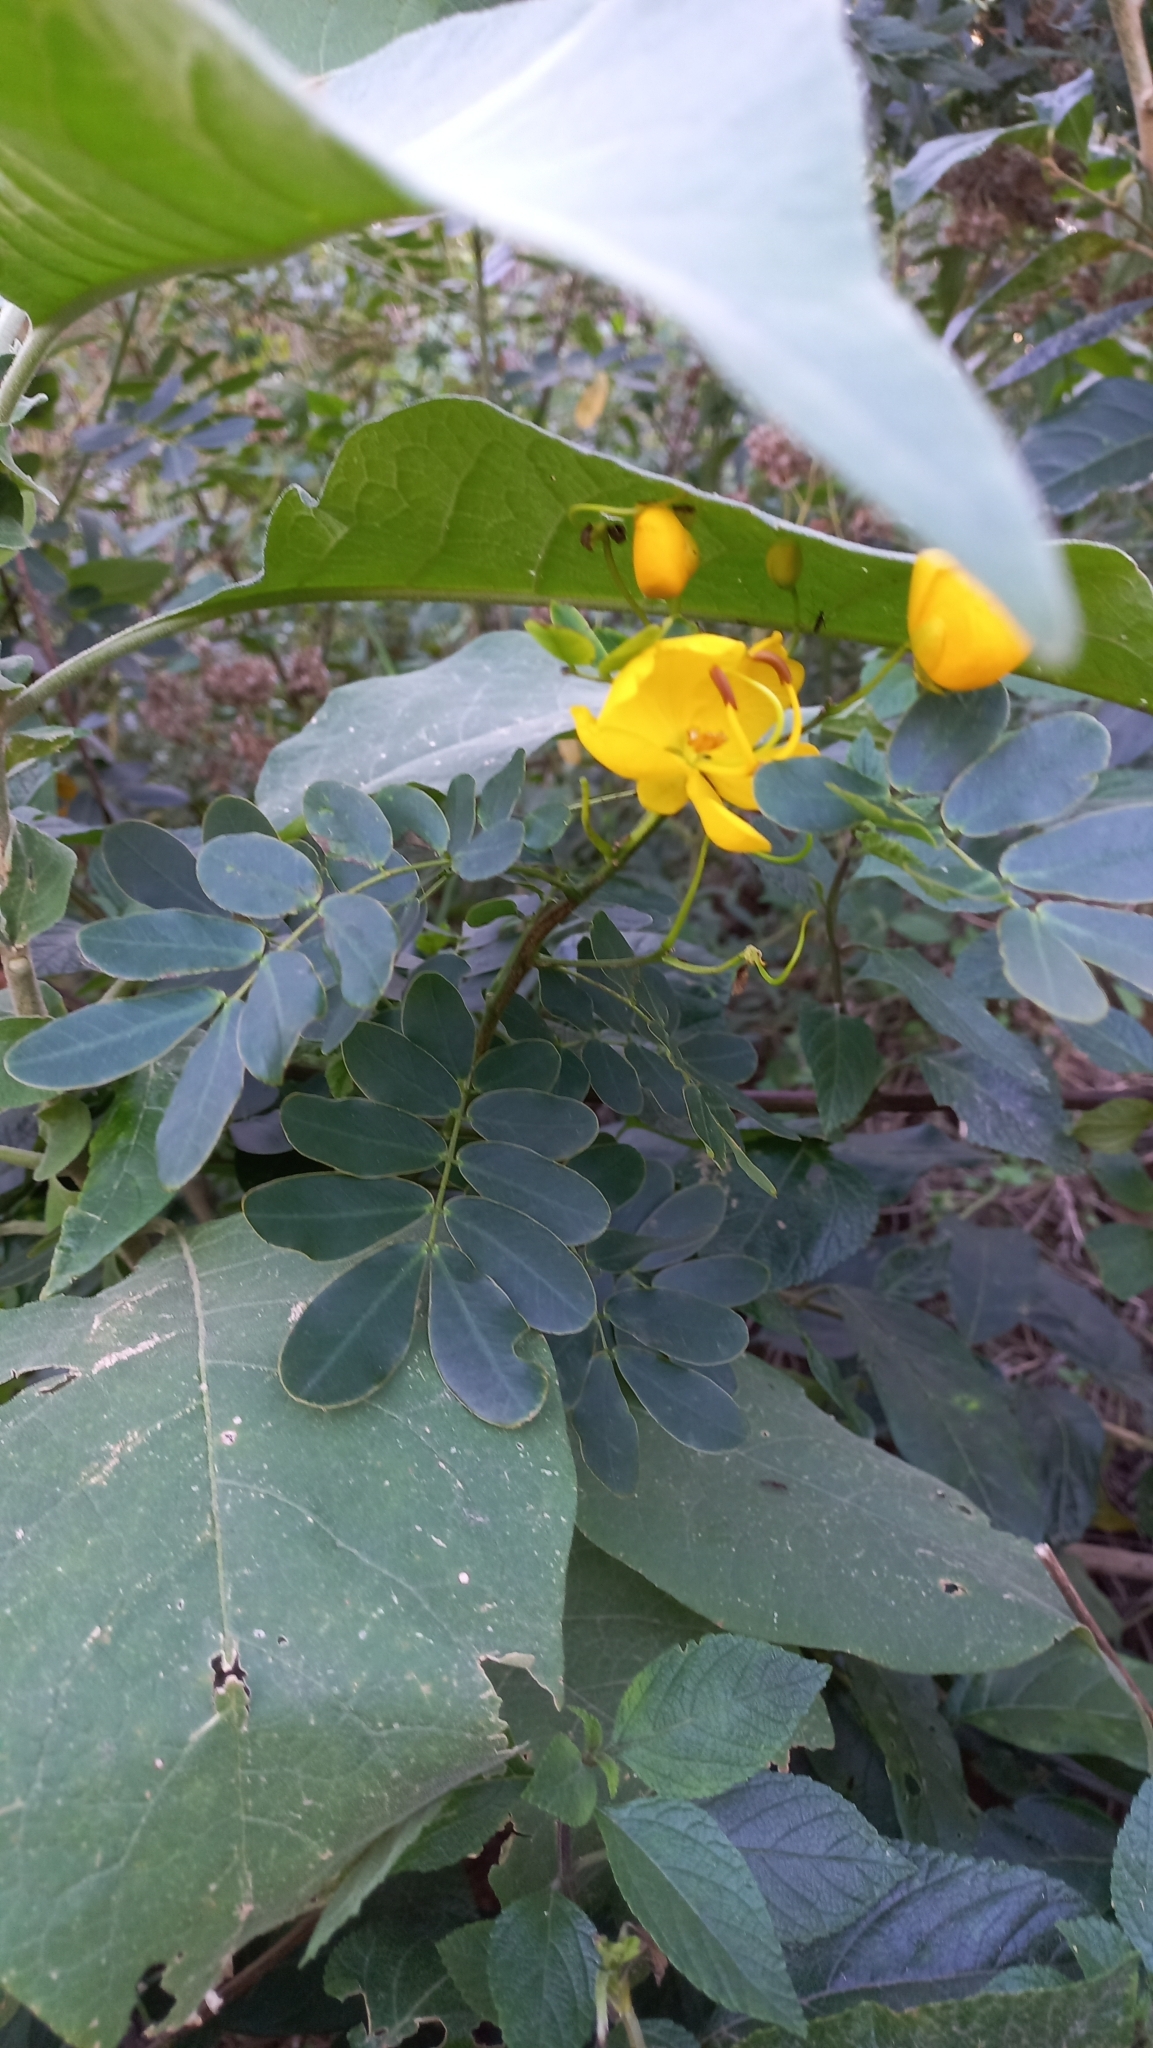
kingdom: Plantae
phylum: Tracheophyta
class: Magnoliopsida
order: Fabales
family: Fabaceae
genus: Senna
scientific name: Senna pendula
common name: Easter cassia
